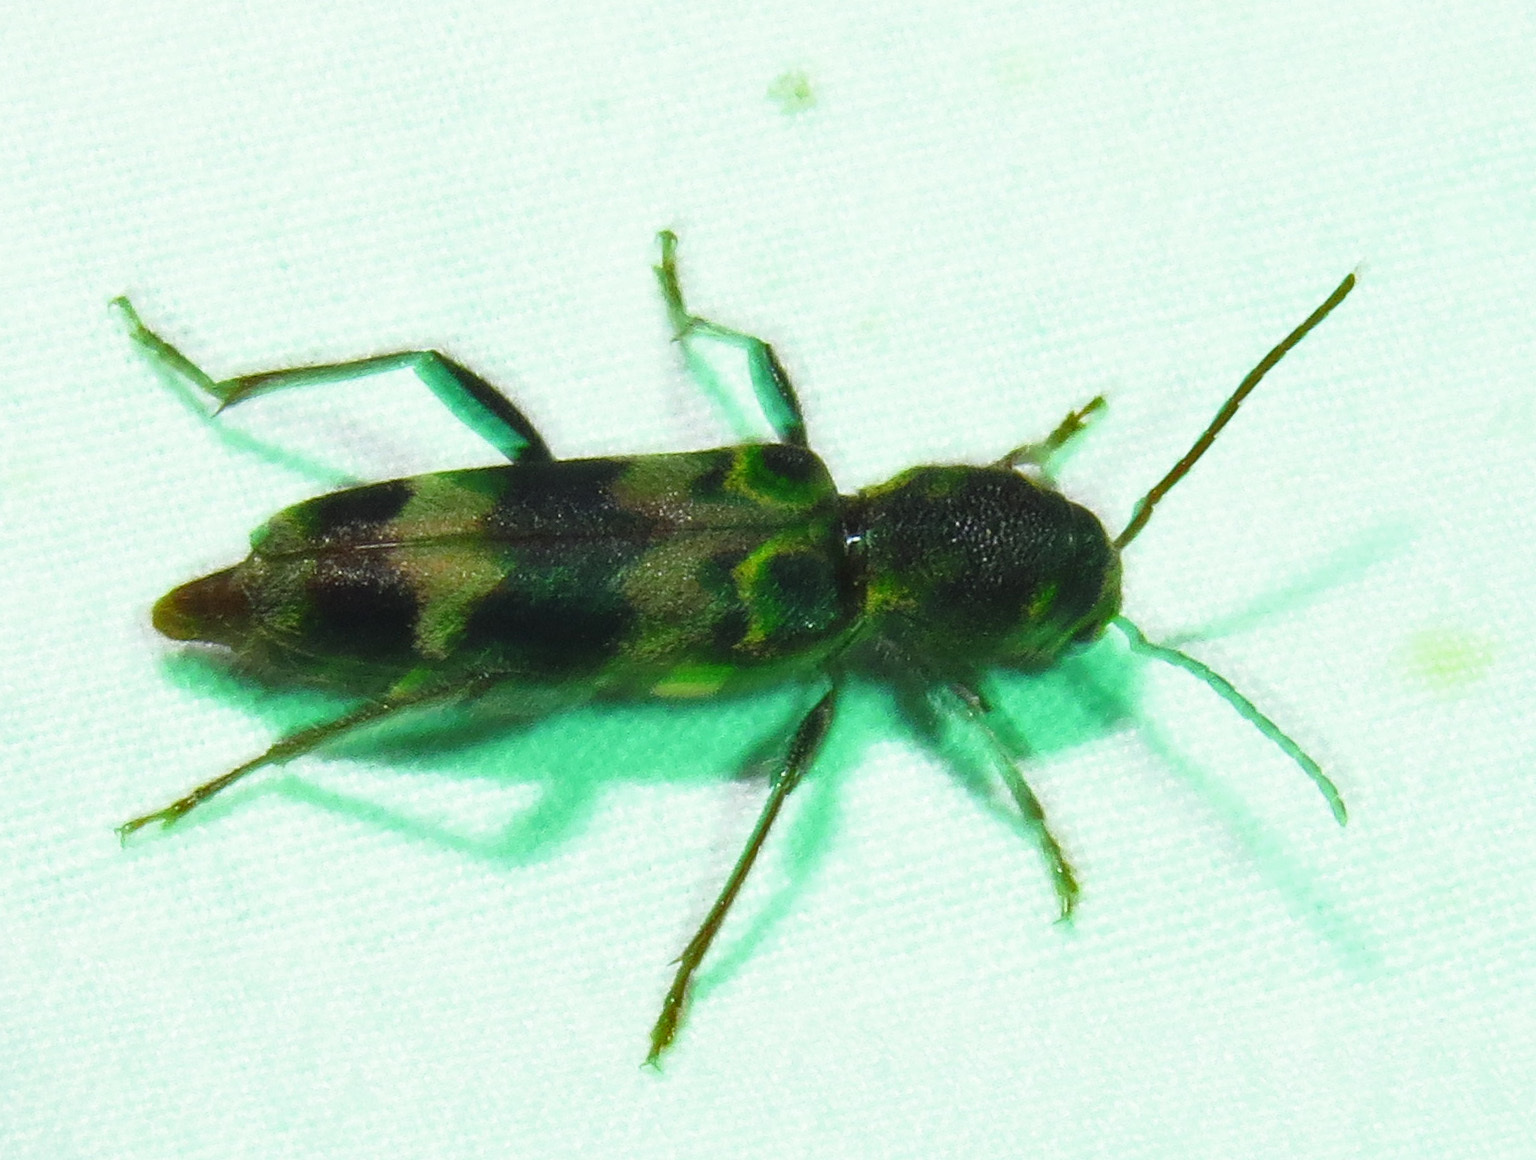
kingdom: Animalia
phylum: Arthropoda
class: Insecta
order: Coleoptera
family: Cerambycidae
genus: Xylotrechus
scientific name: Xylotrechus colonus
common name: Long-horned beetle
